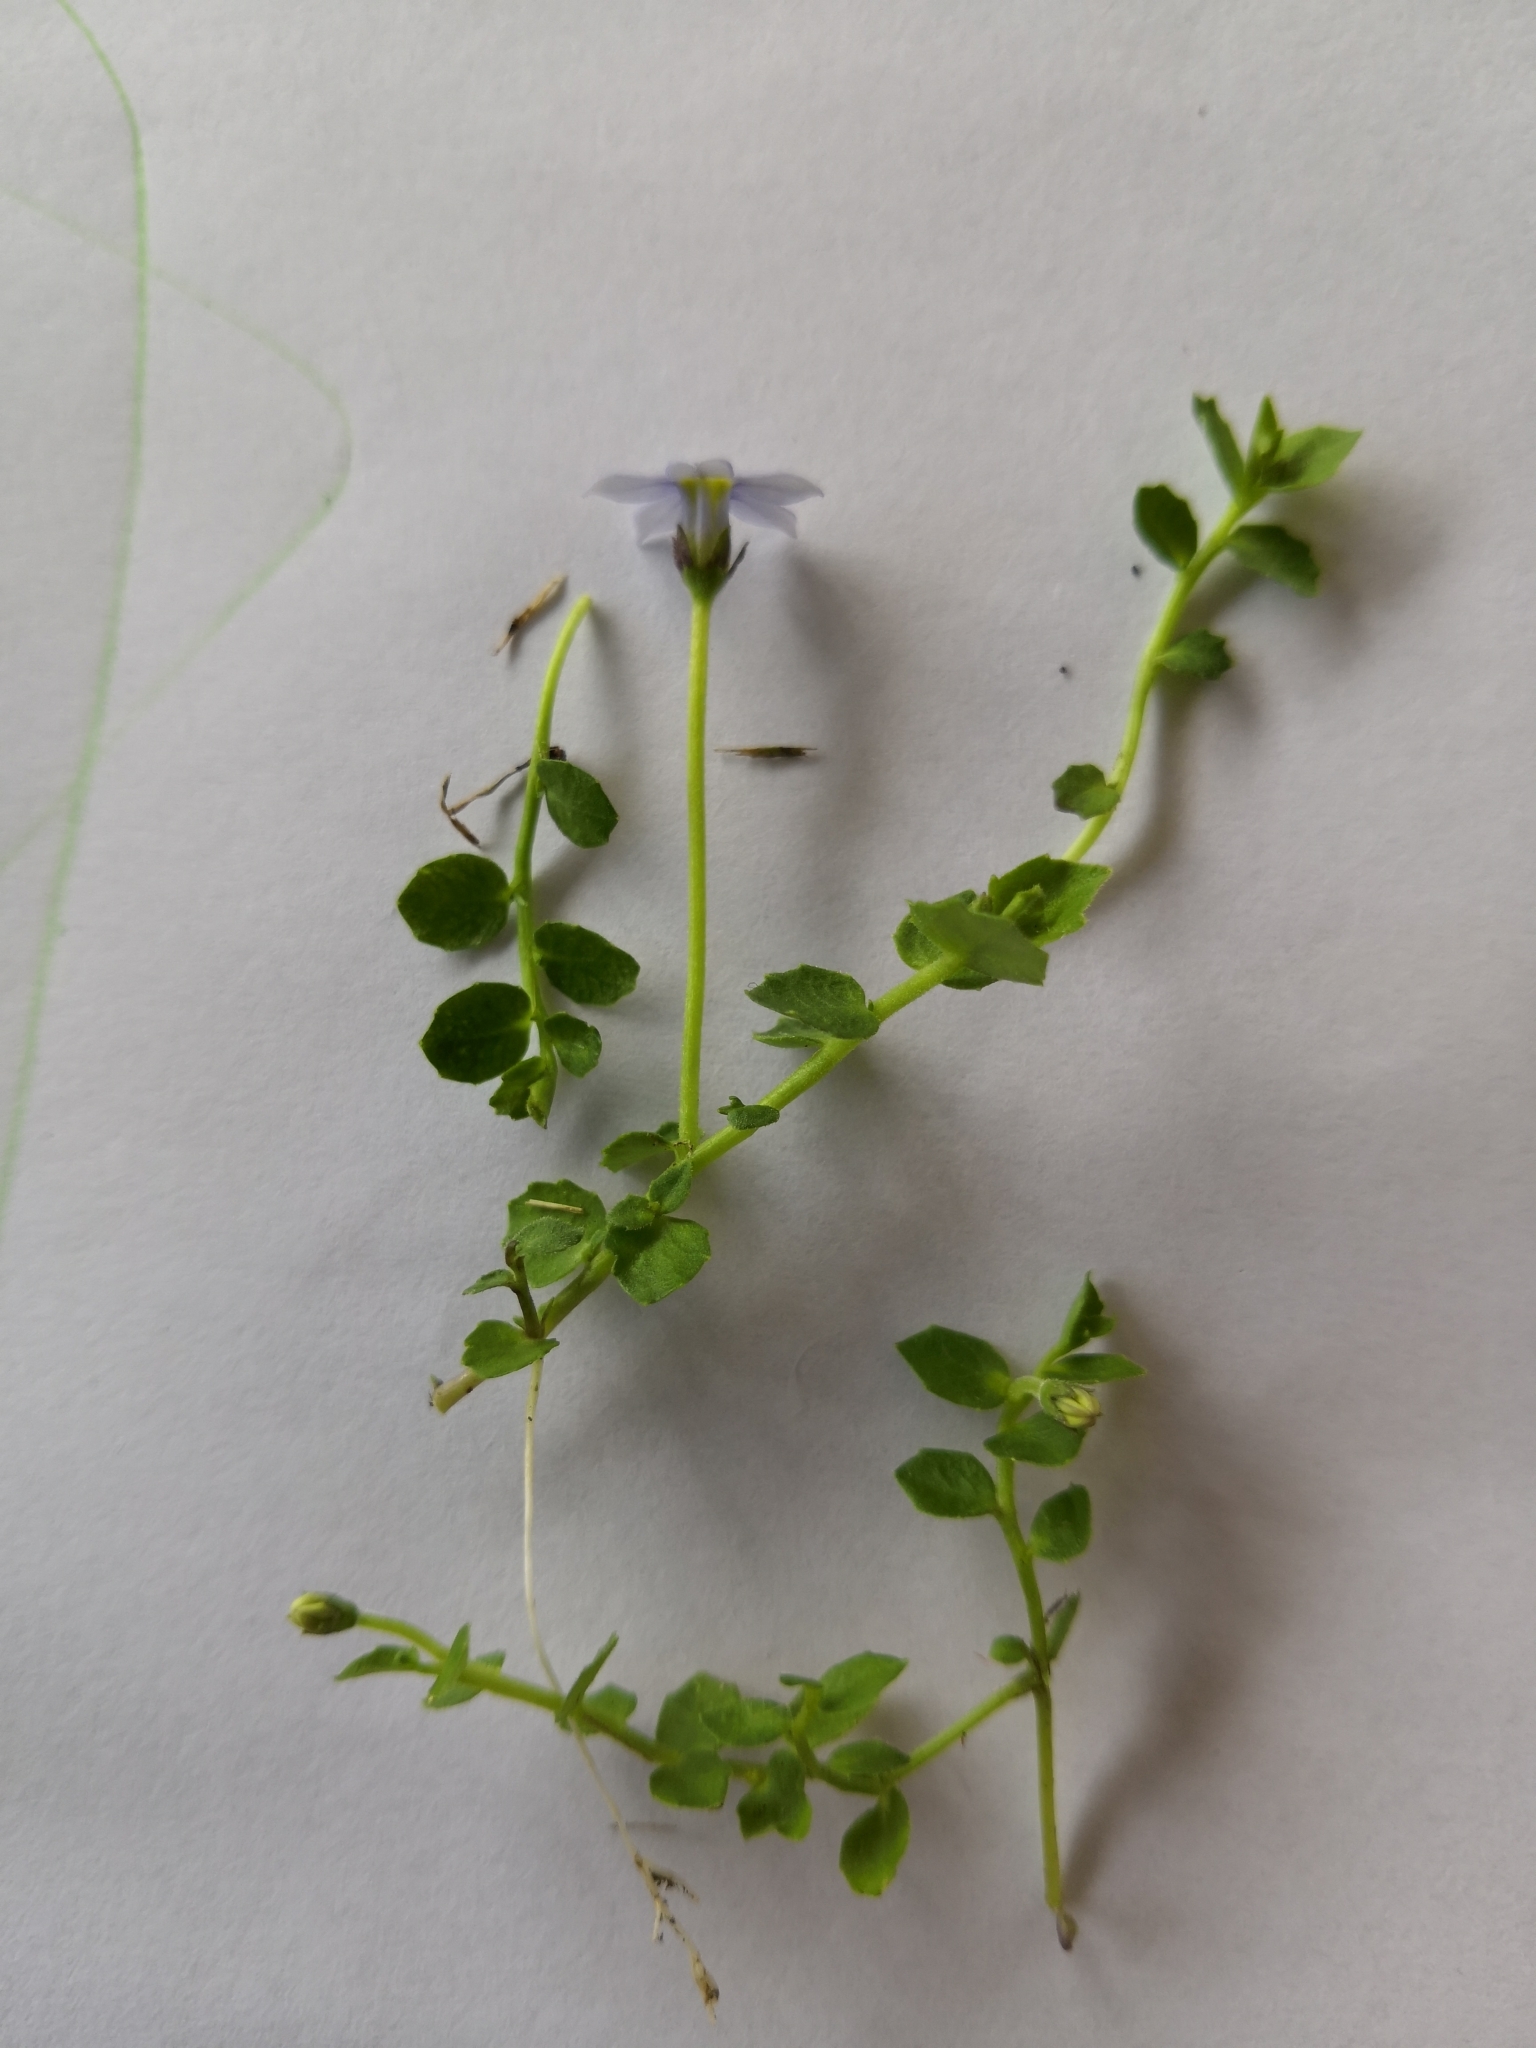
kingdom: Plantae
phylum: Tracheophyta
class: Magnoliopsida
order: Asterales
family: Campanulaceae
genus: Lobelia
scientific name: Lobelia pedunculata
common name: Matted pratia
